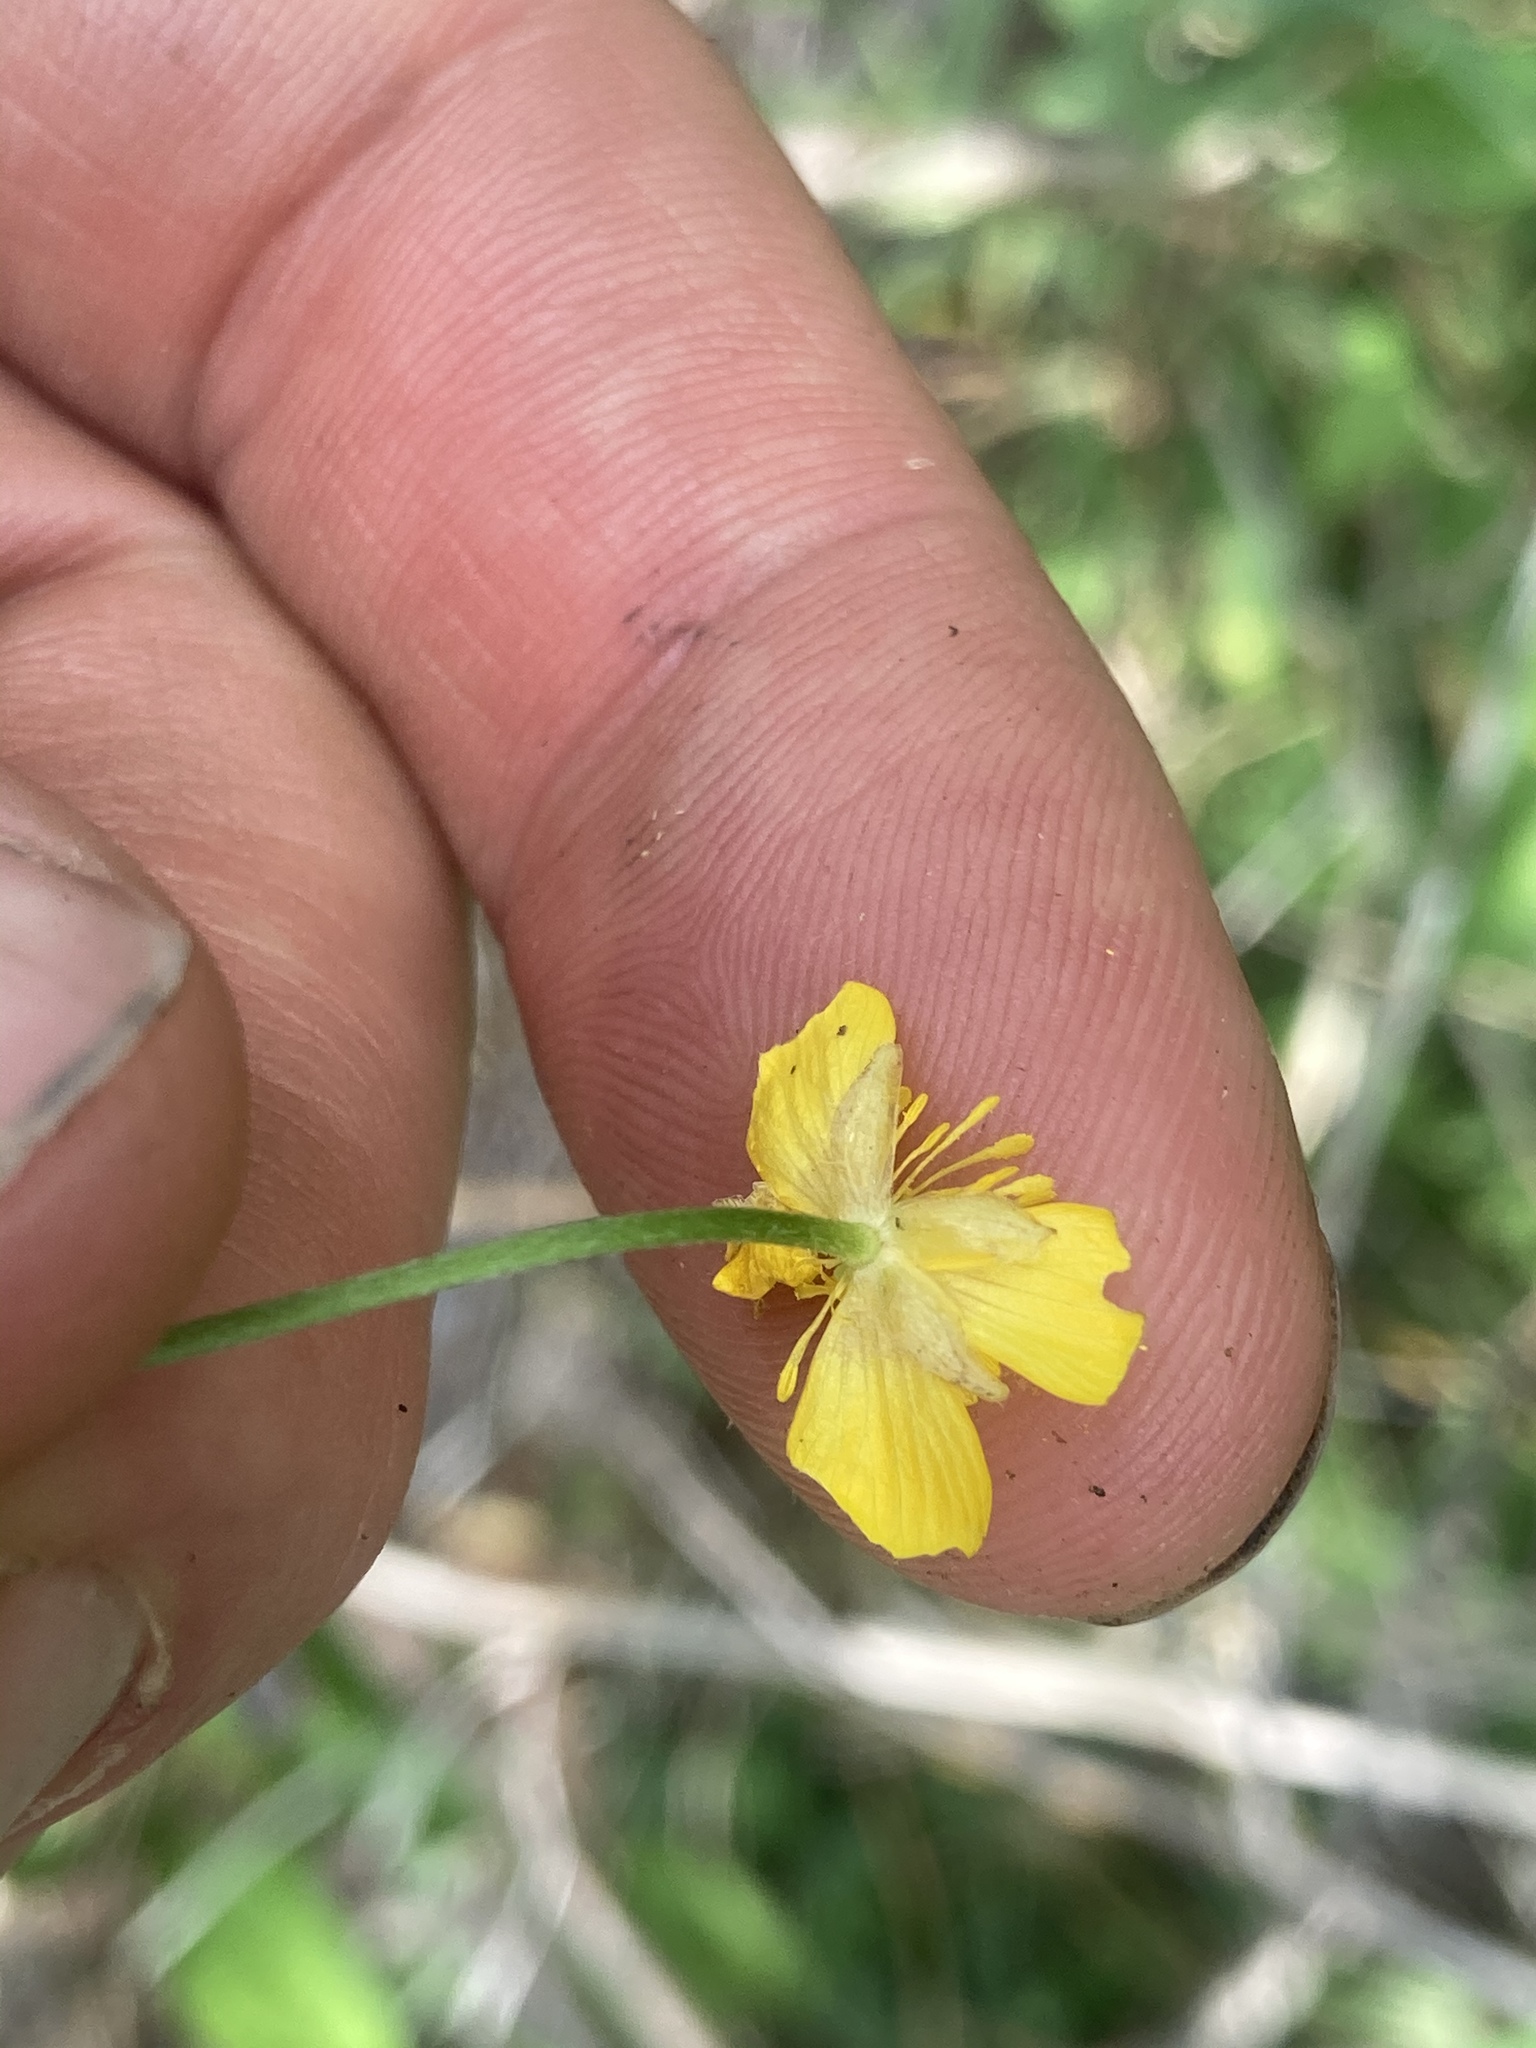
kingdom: Plantae
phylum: Tracheophyta
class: Magnoliopsida
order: Ranunculales
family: Ranunculaceae
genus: Ranunculus
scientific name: Ranunculus hispidus
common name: Bristly buttercup
